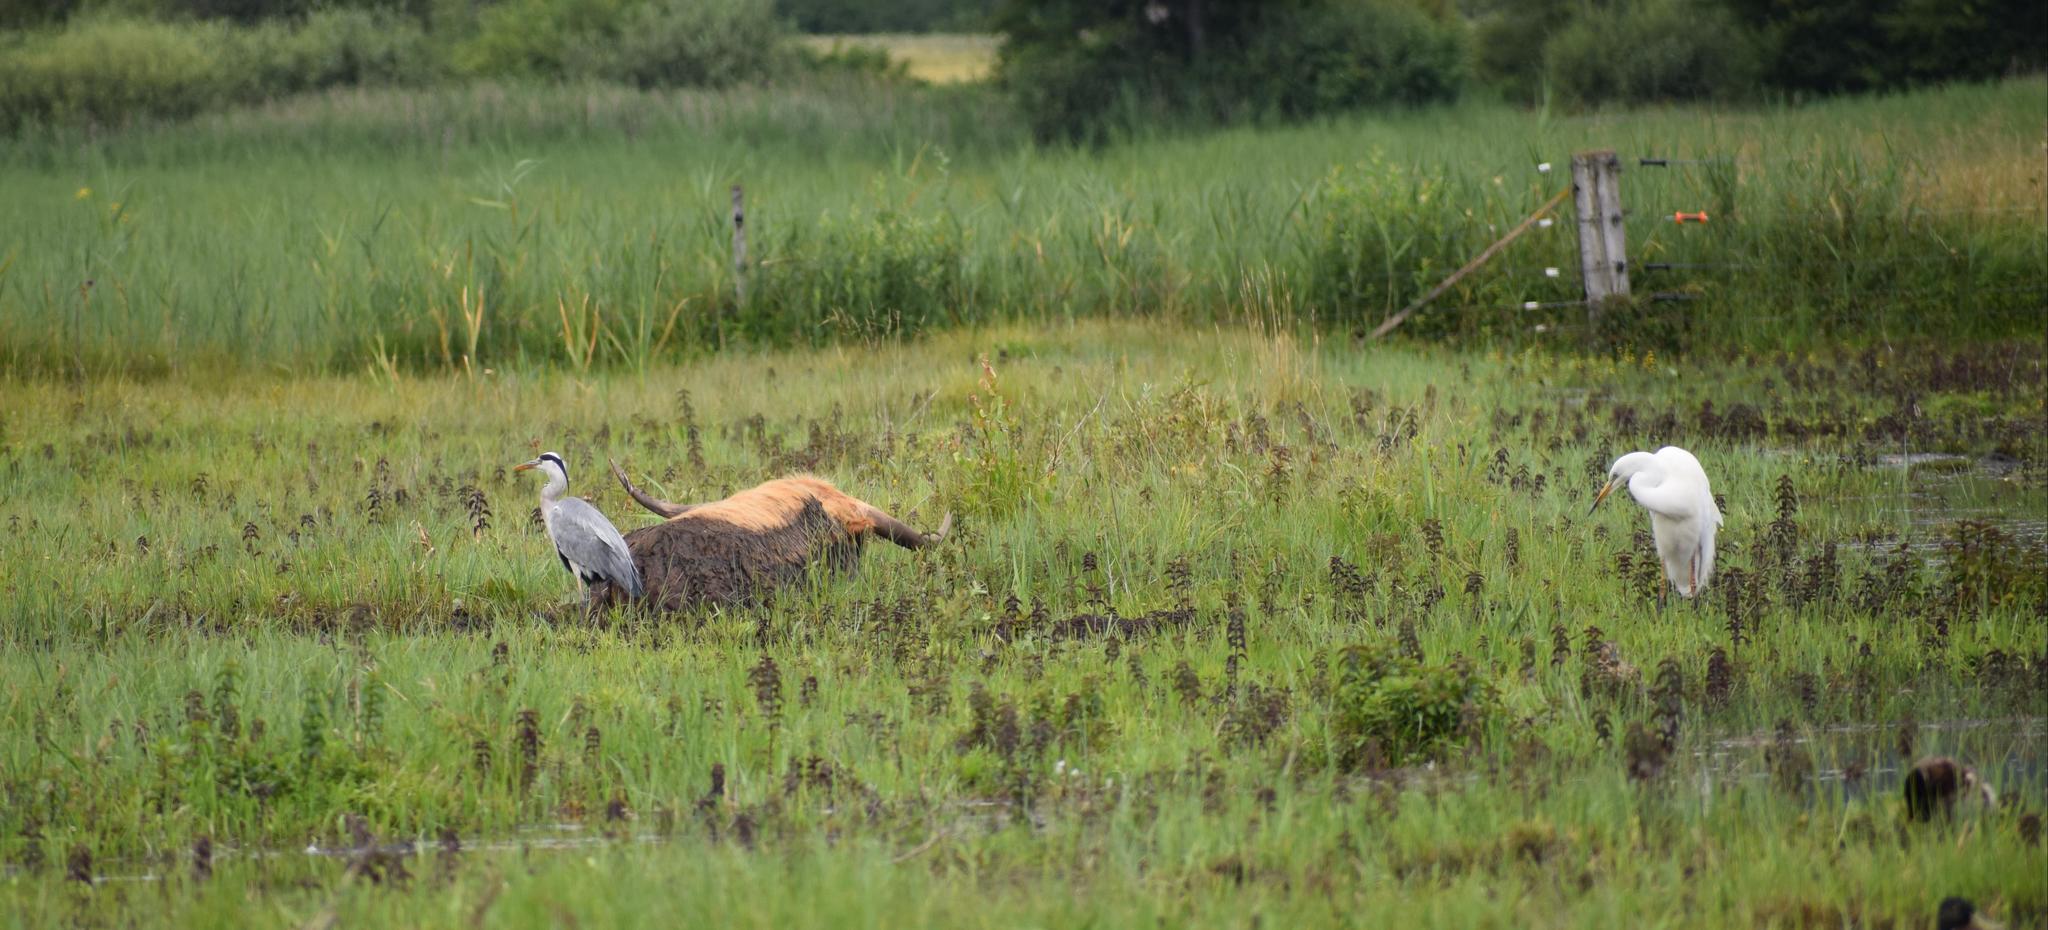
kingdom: Animalia
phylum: Chordata
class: Aves
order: Pelecaniformes
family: Ardeidae
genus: Ardea
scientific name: Ardea alba
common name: Great egret
